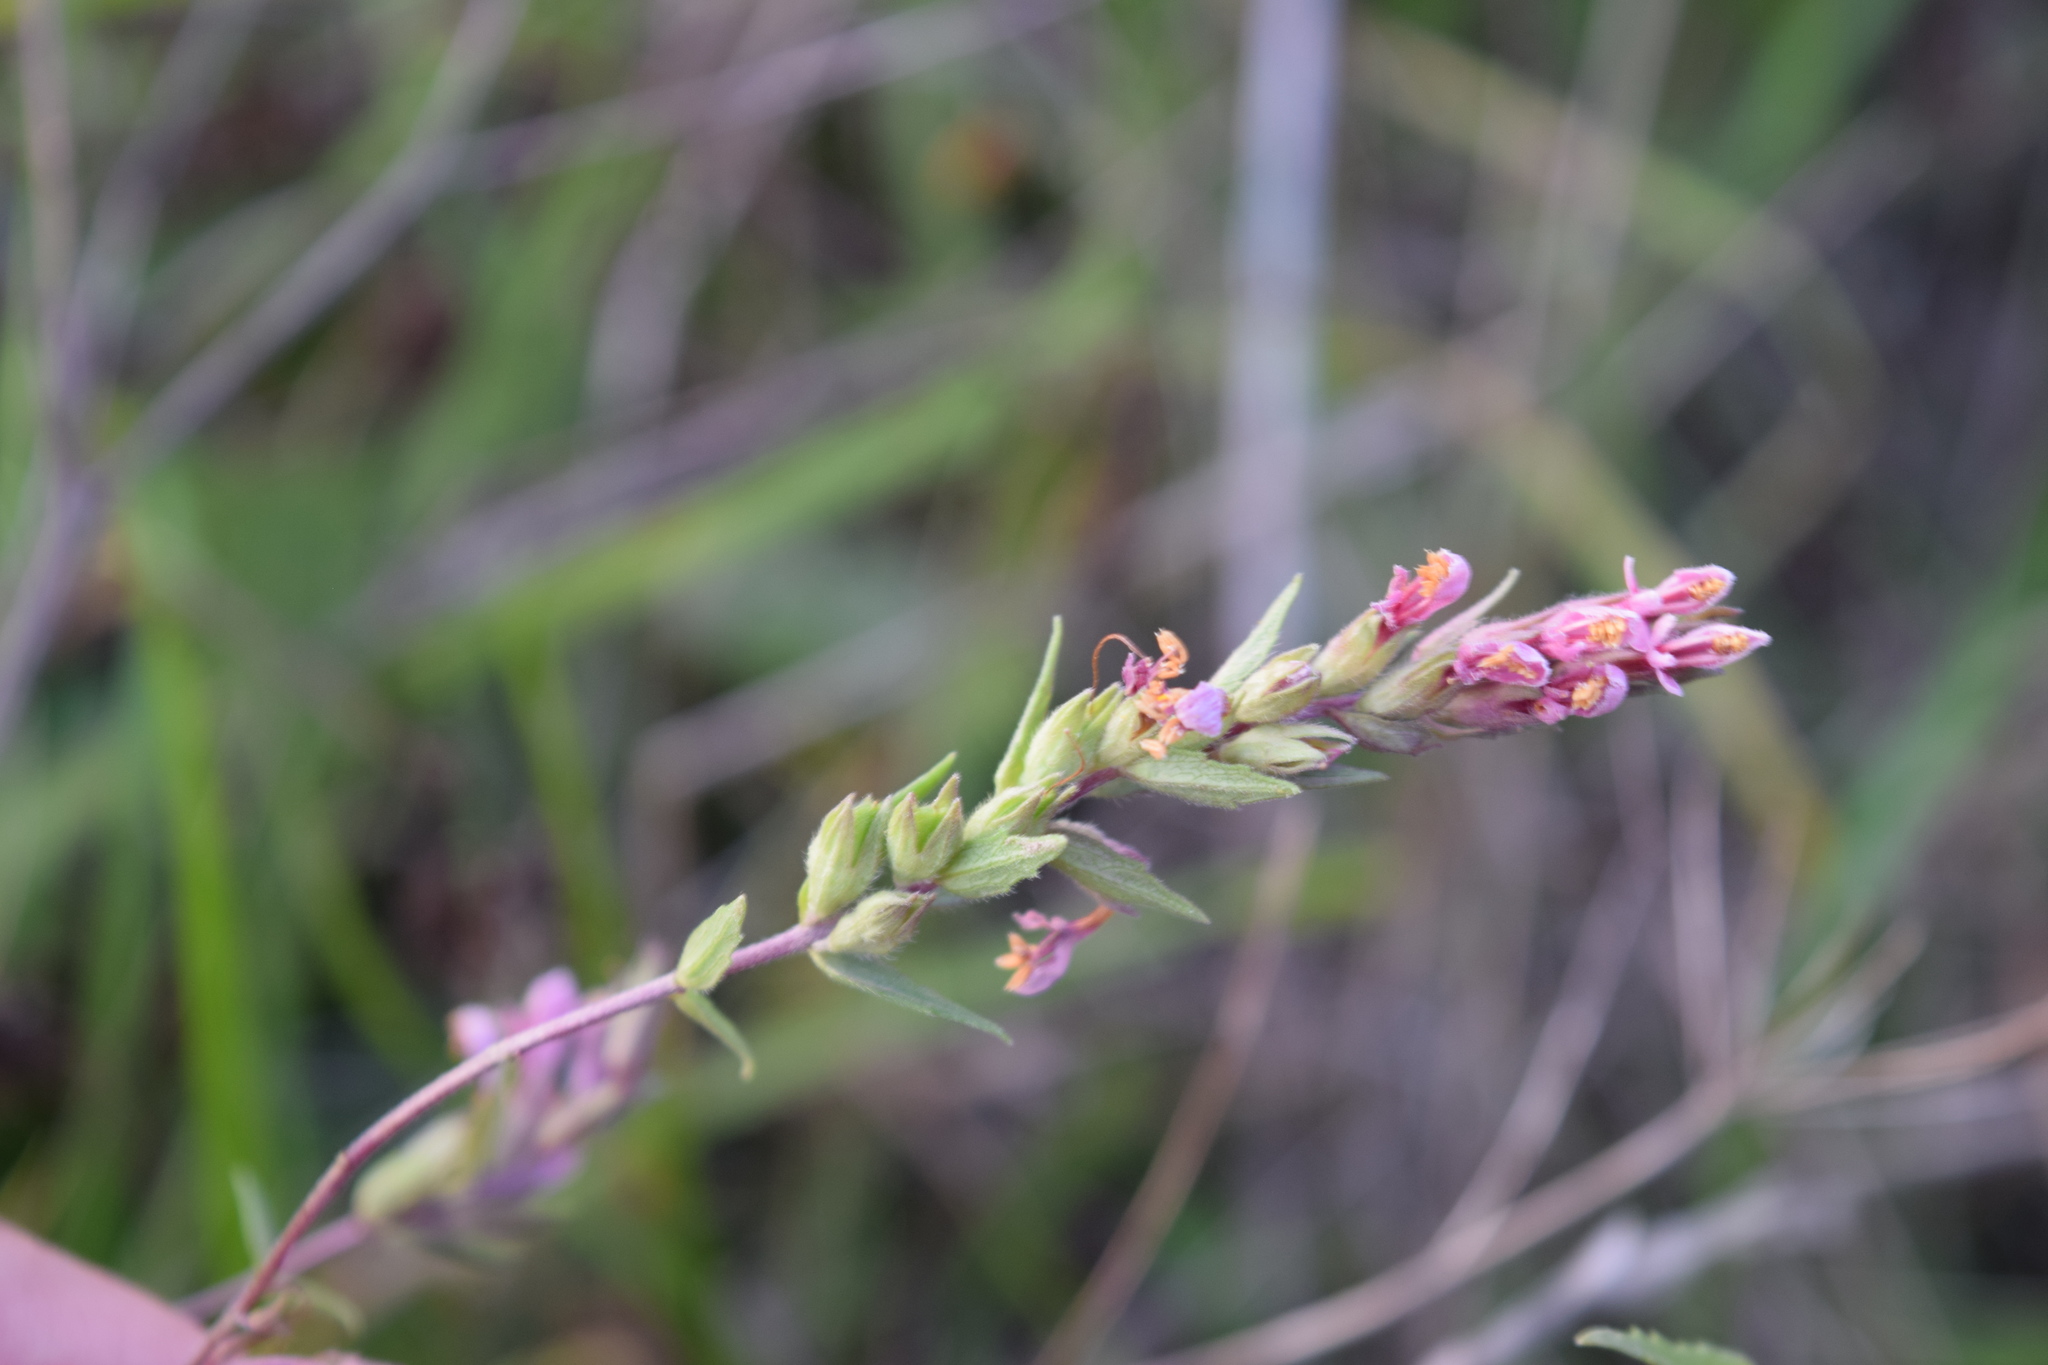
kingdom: Plantae
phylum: Tracheophyta
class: Magnoliopsida
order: Lamiales
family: Orobanchaceae
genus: Odontites
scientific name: Odontites vulgaris
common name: Broomrape
